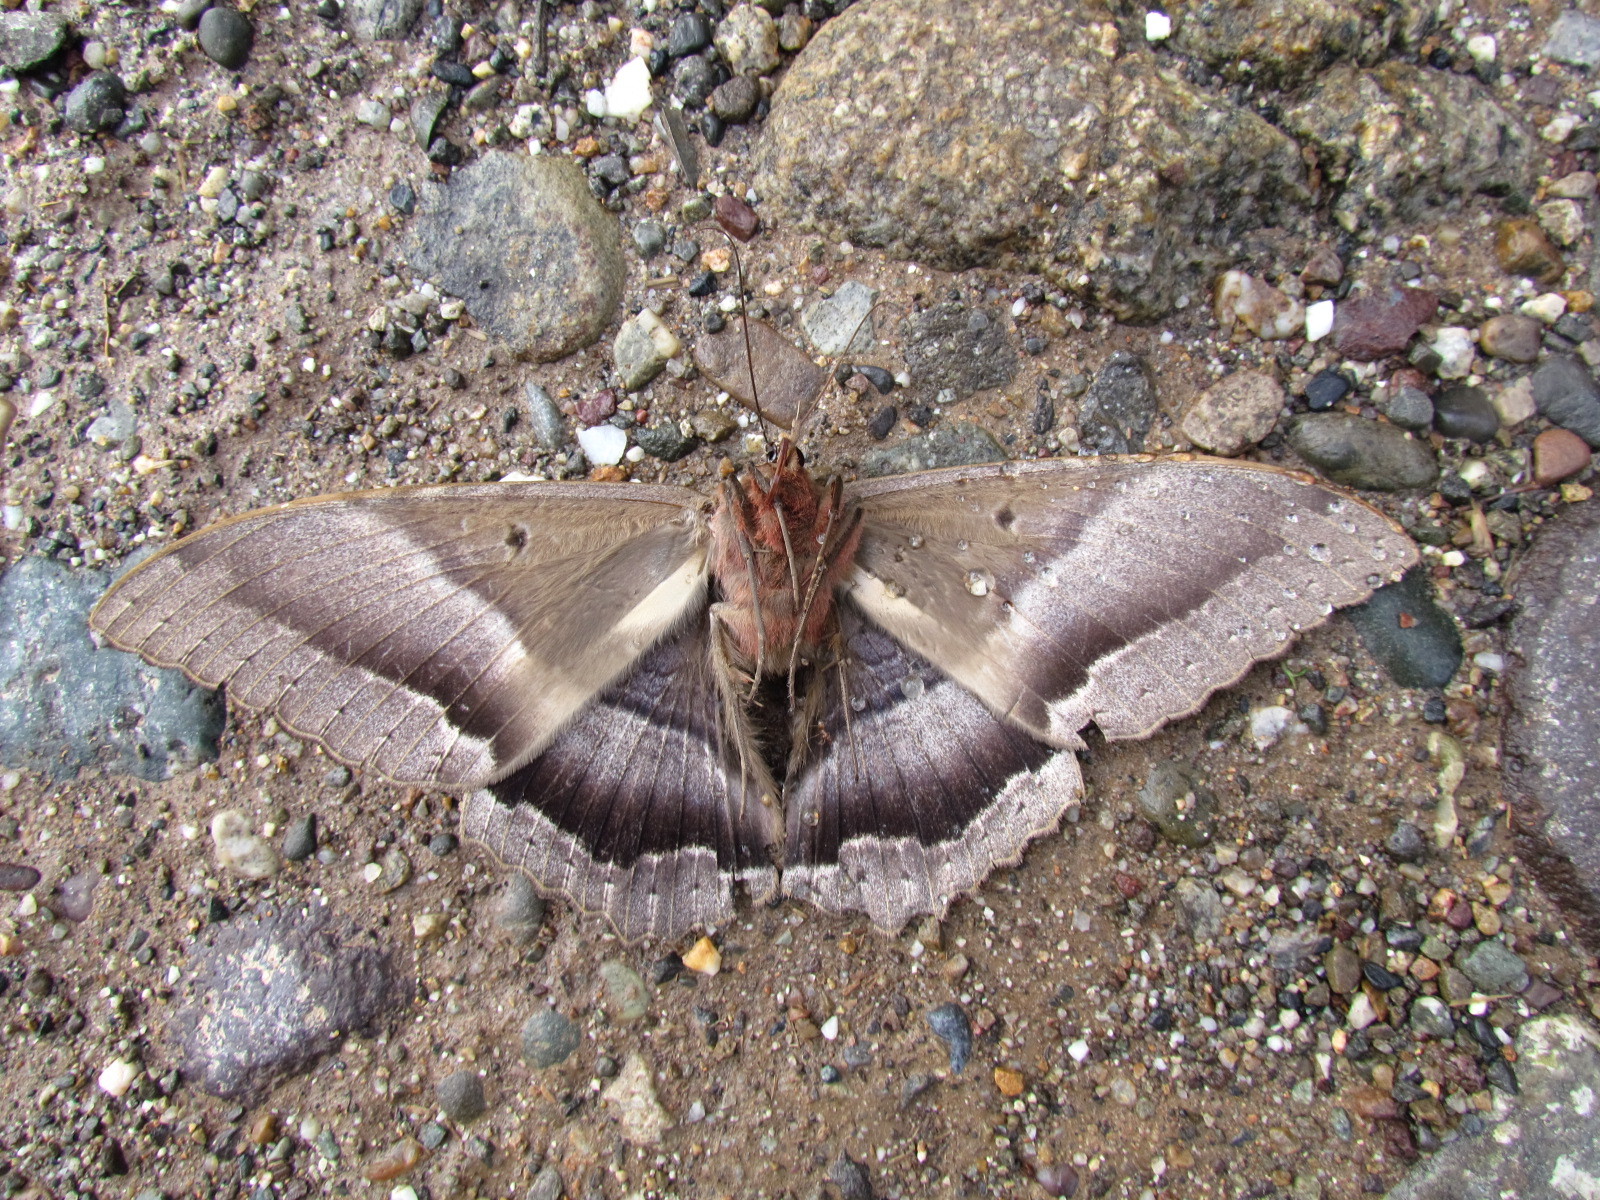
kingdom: Animalia
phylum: Arthropoda
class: Insecta
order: Lepidoptera
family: Erebidae
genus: Ascalapha
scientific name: Ascalapha odorata
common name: Black witch
